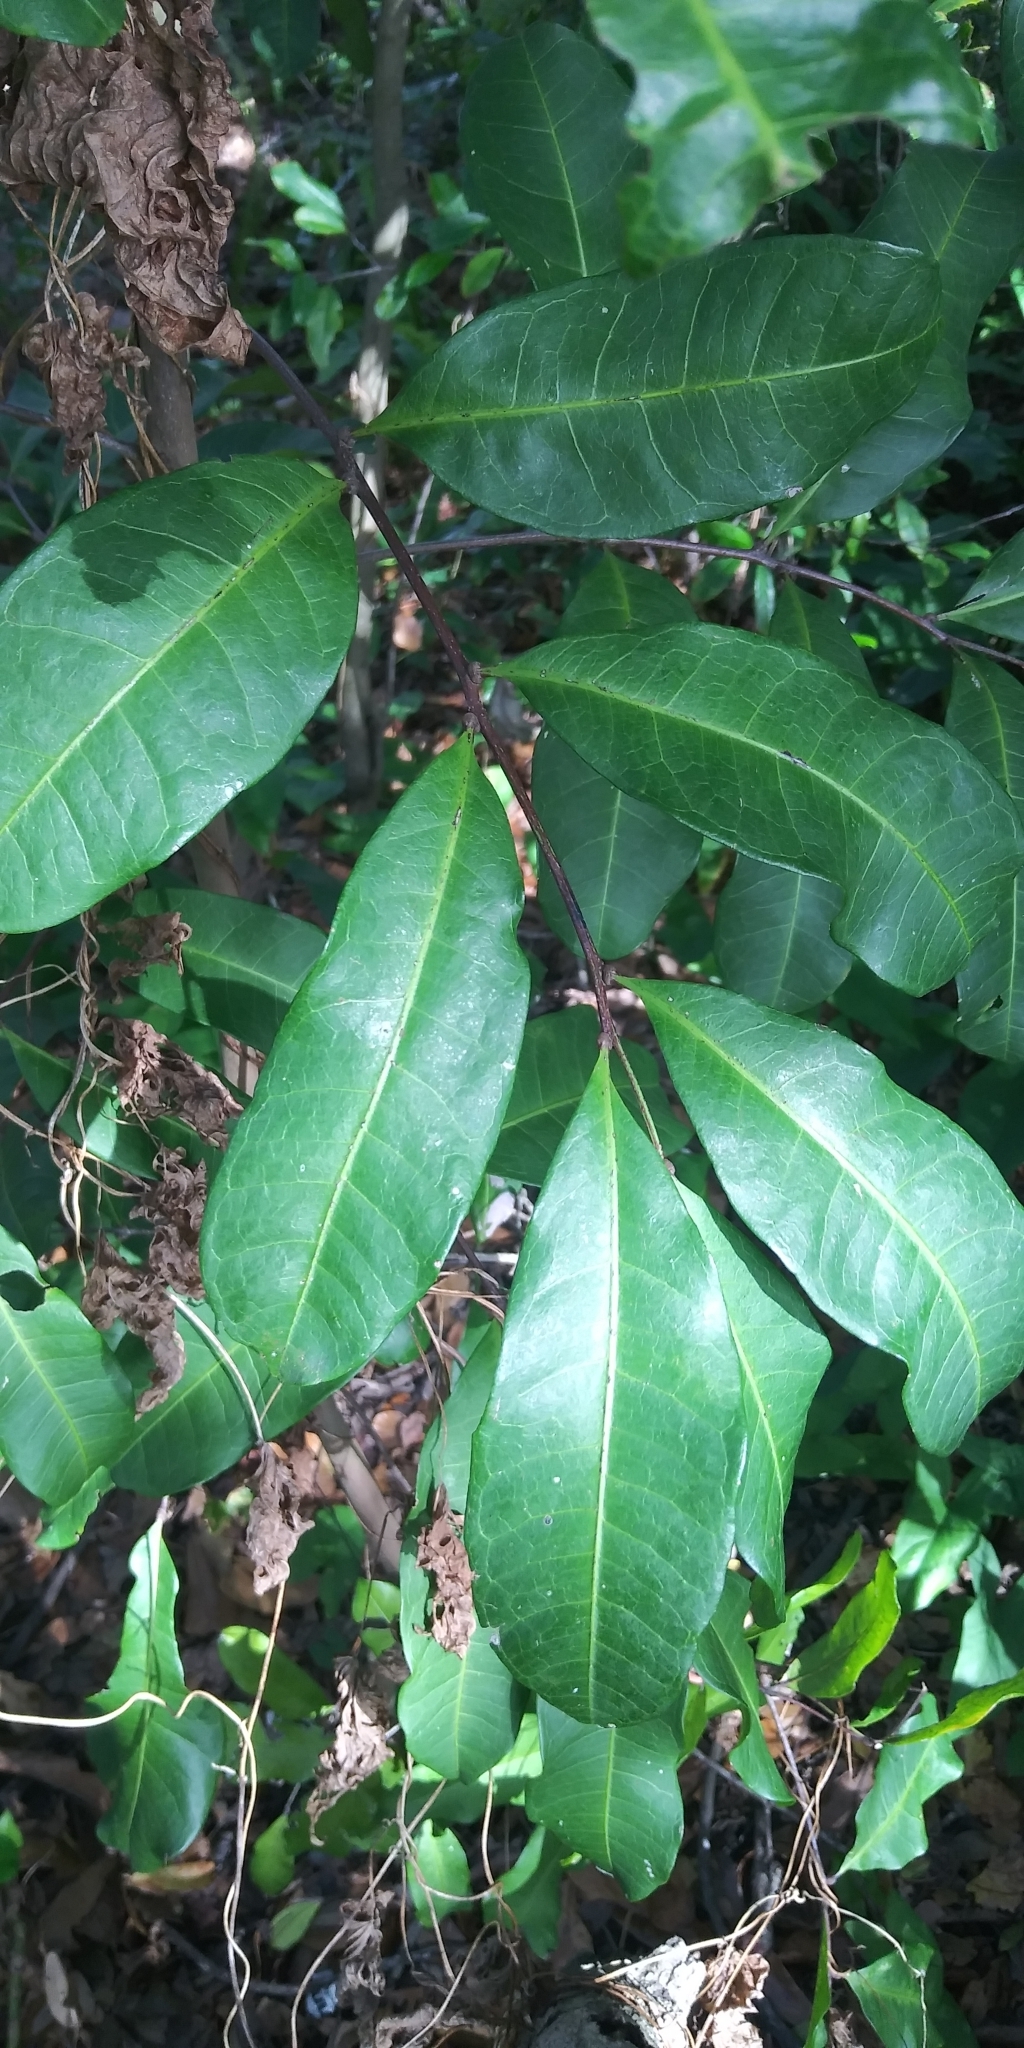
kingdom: Plantae
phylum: Tracheophyta
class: Magnoliopsida
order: Sapindales
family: Sapindaceae
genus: Cupaniopsis
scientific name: Cupaniopsis anacardioides
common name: Carrotwood
